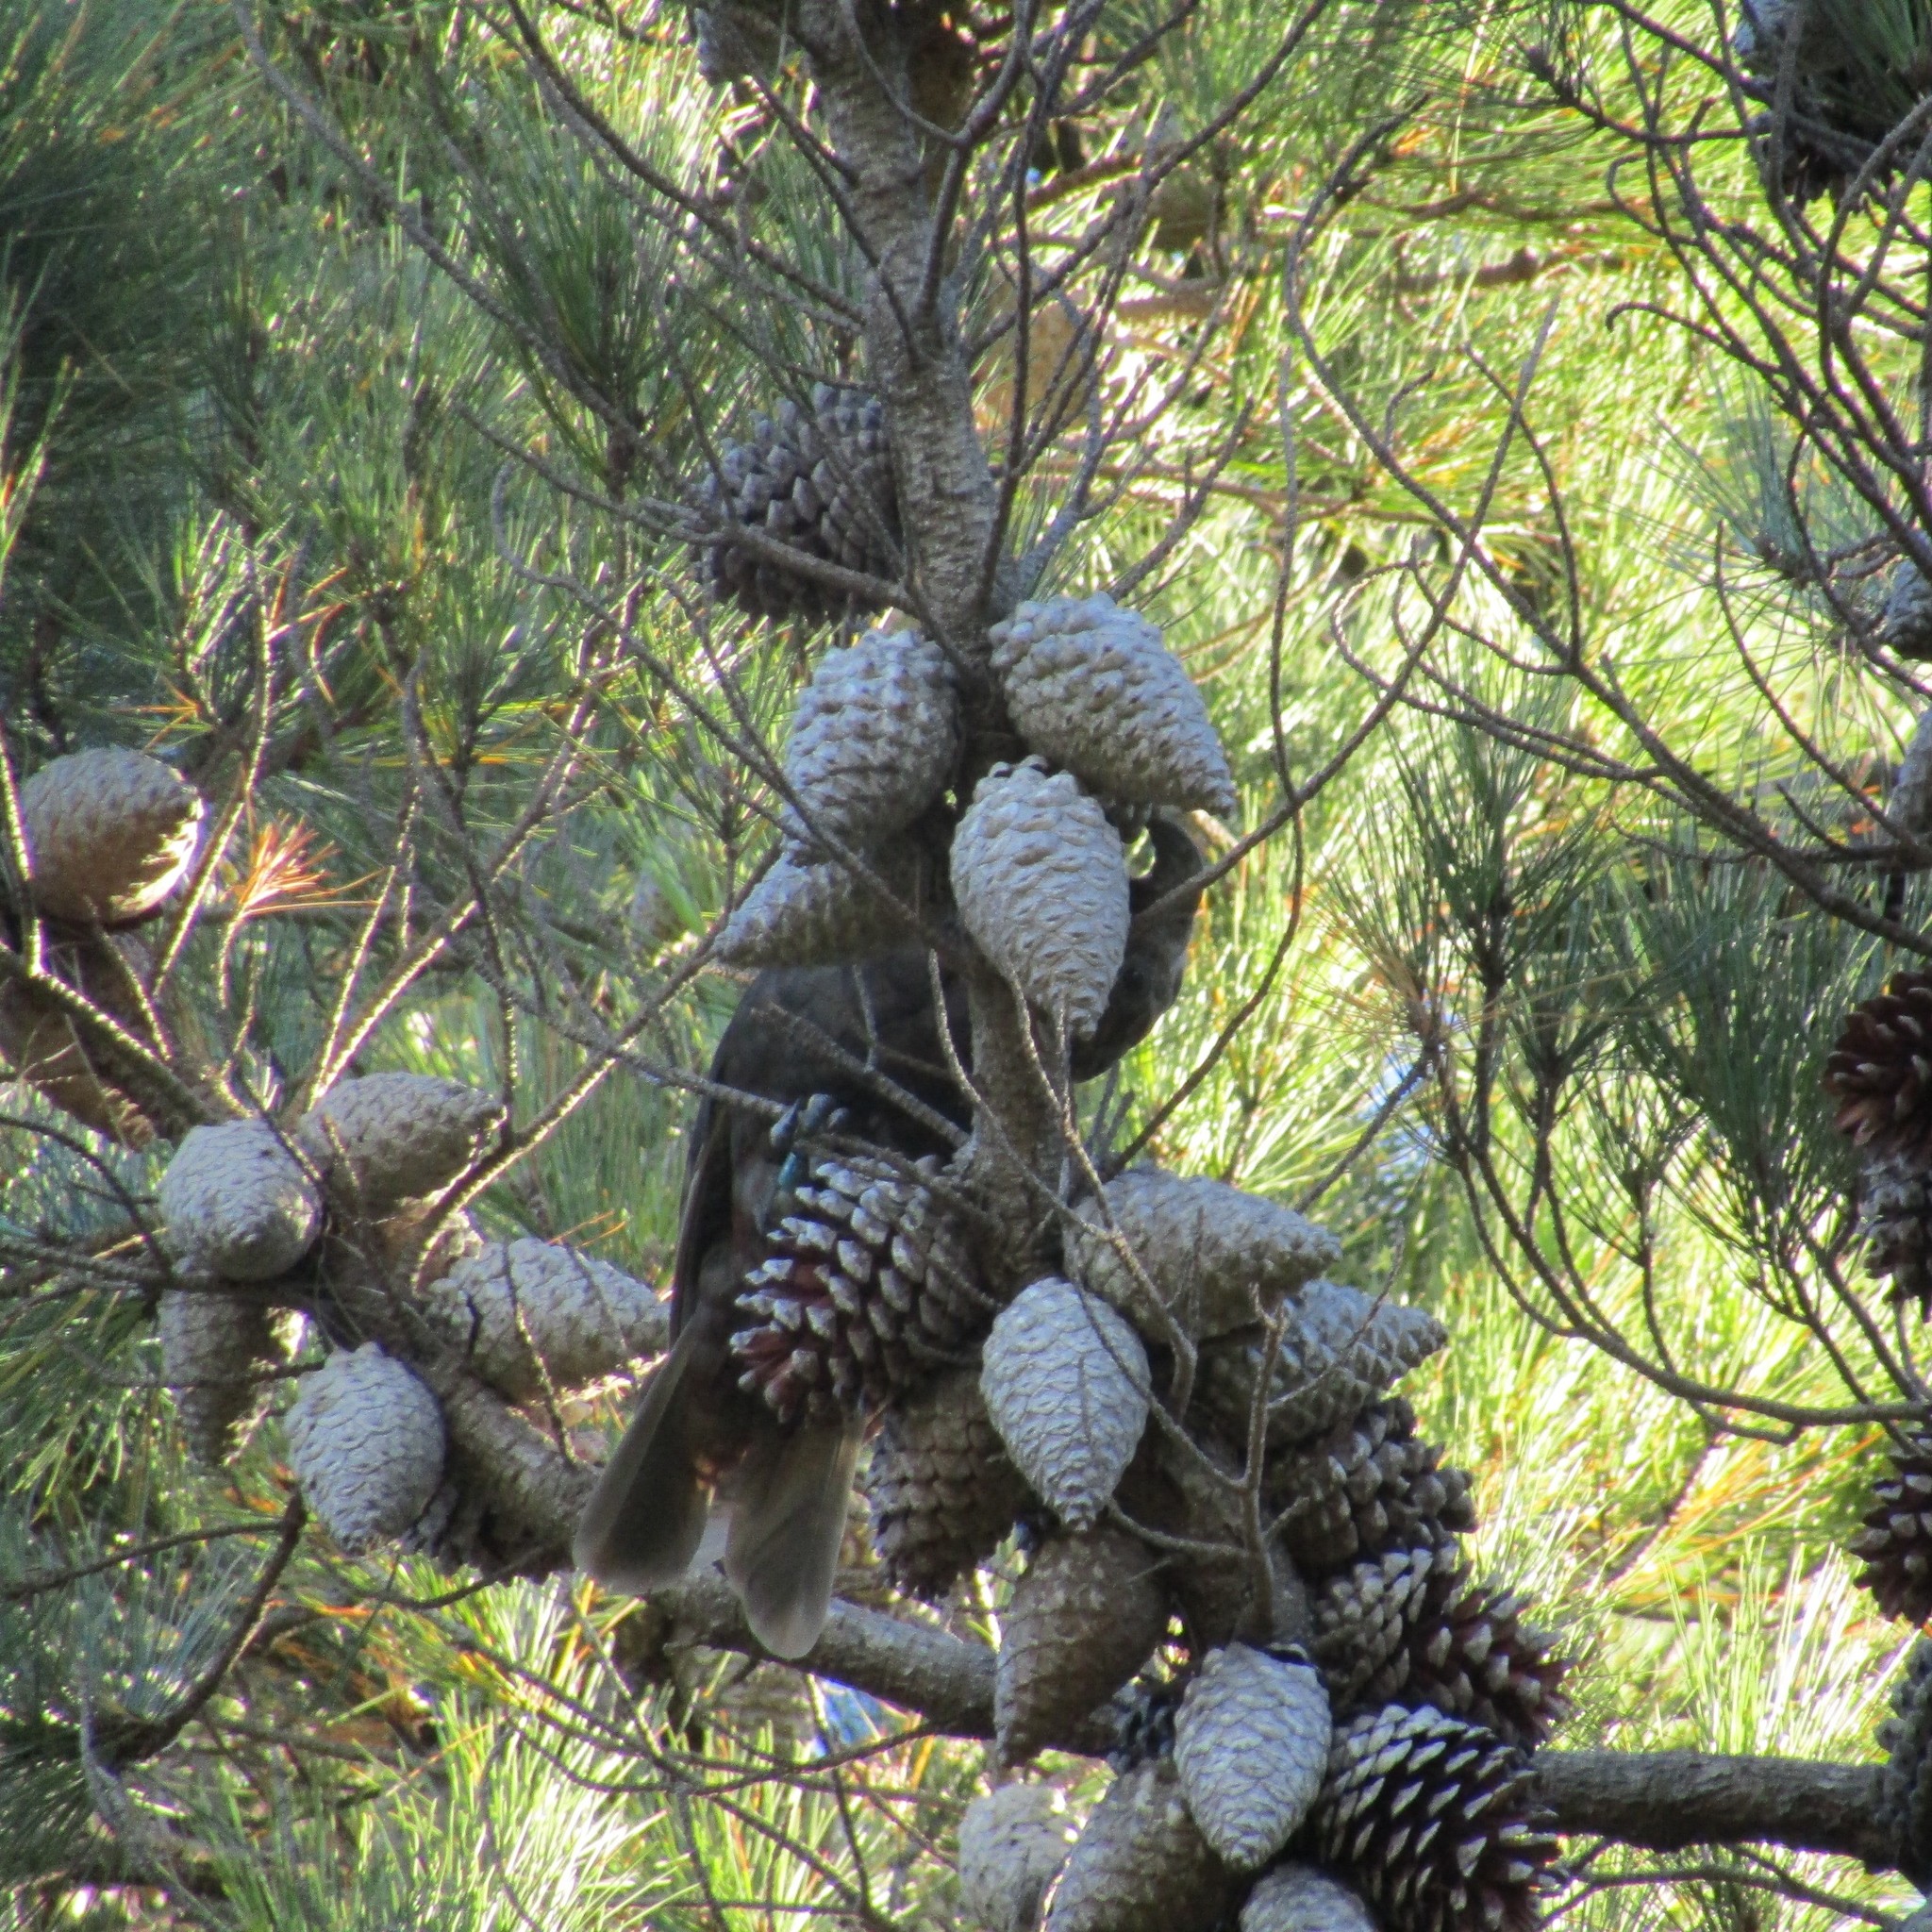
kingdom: Animalia
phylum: Chordata
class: Aves
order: Psittaciformes
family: Psittacidae
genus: Nestor
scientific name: Nestor meridionalis
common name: New zealand kaka
